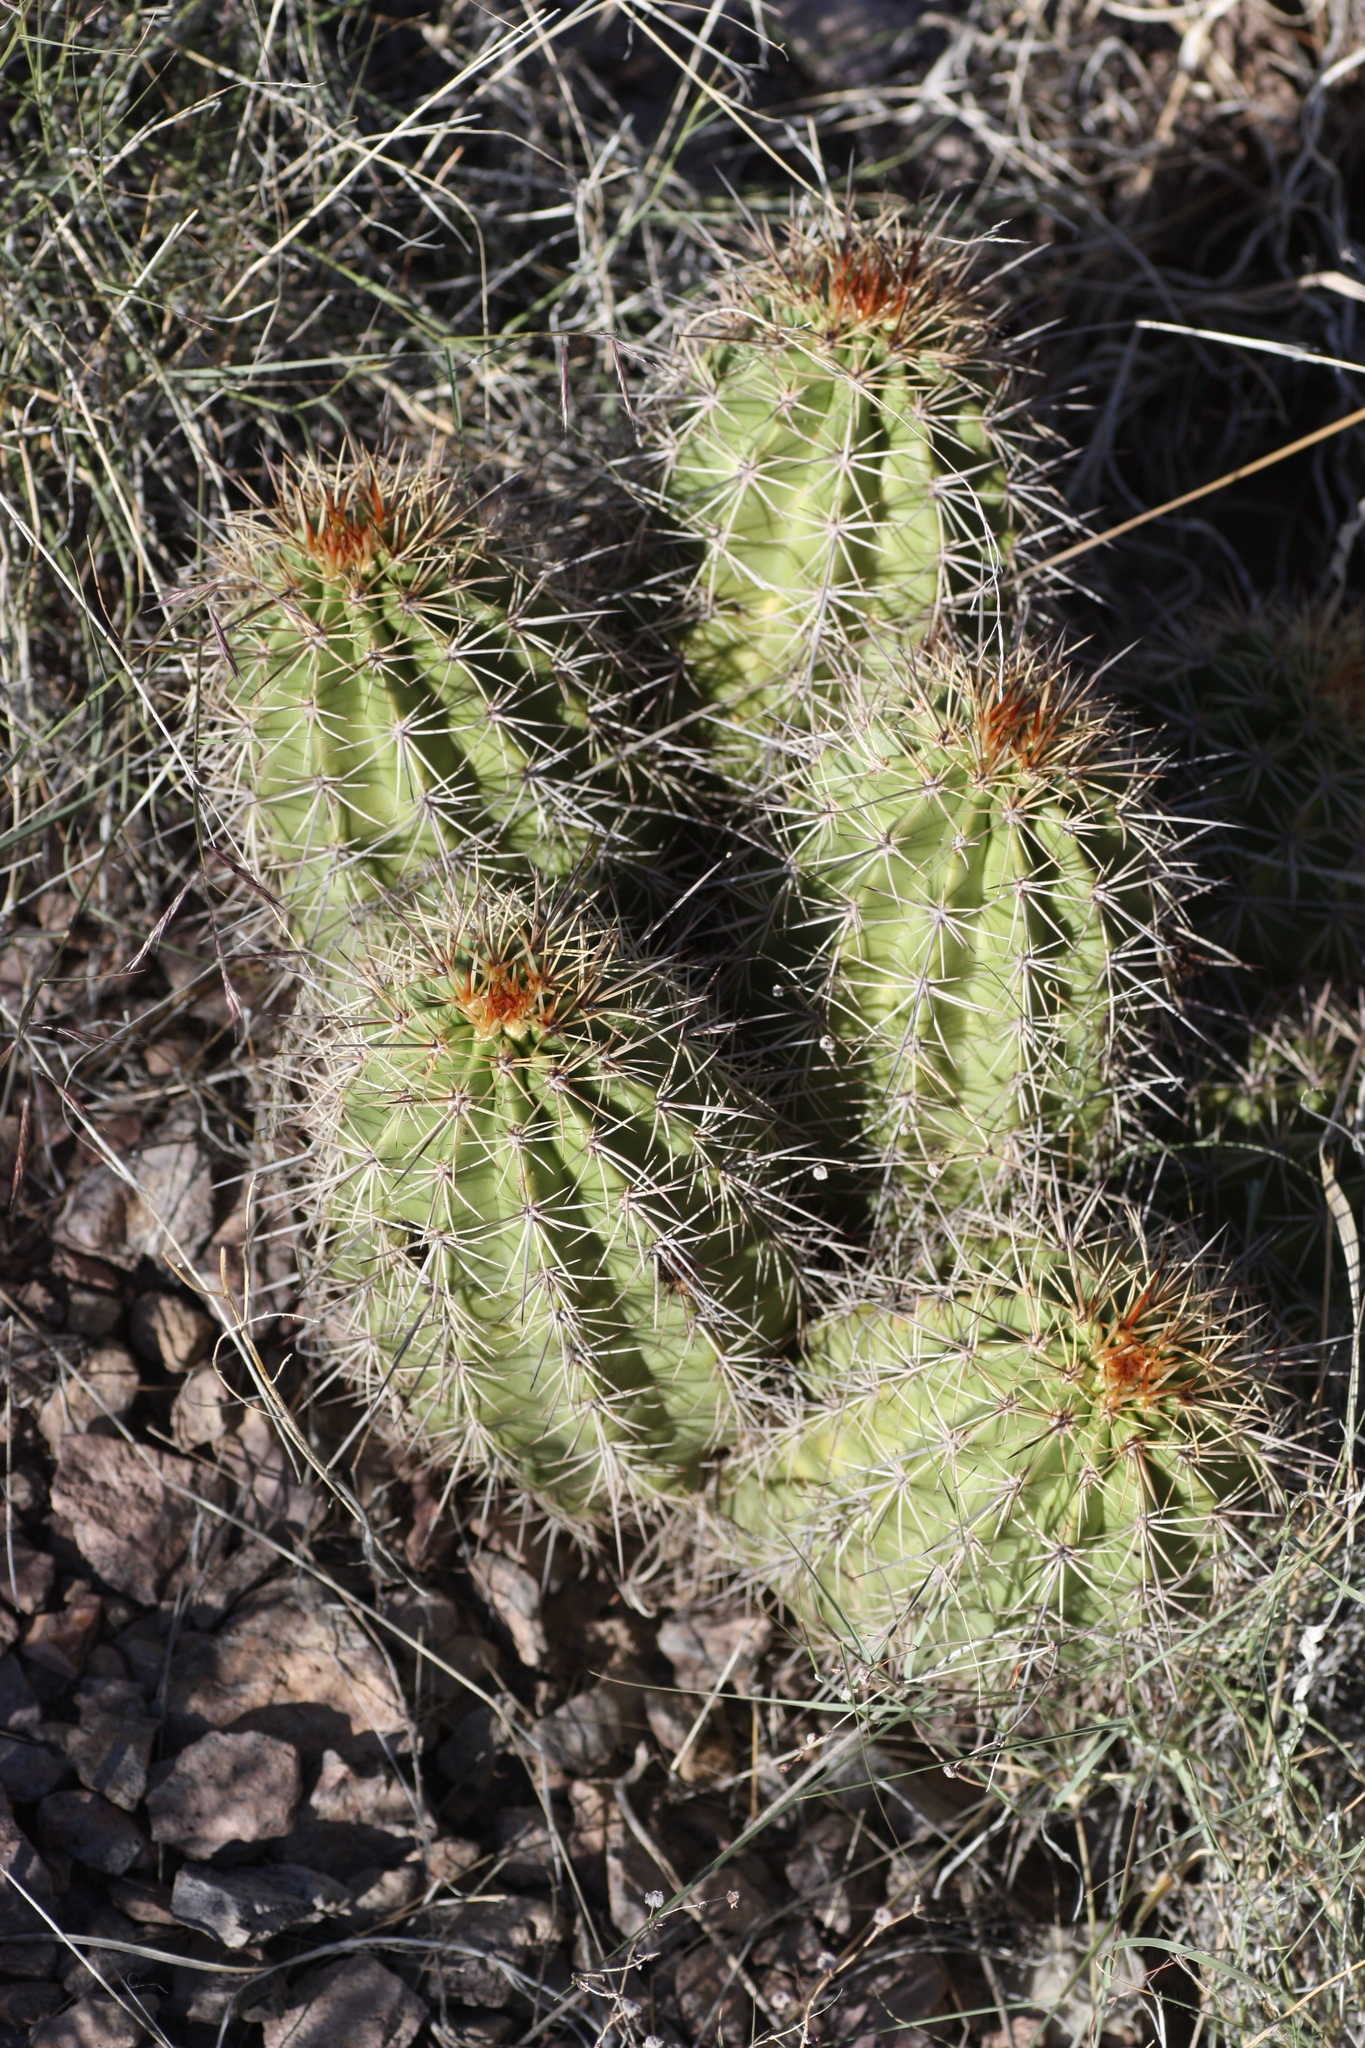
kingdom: Plantae
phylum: Tracheophyta
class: Magnoliopsida
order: Caryophyllales
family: Cactaceae
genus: Echinocereus
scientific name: Echinocereus coccineus
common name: Scarlet hedgehog cactus
